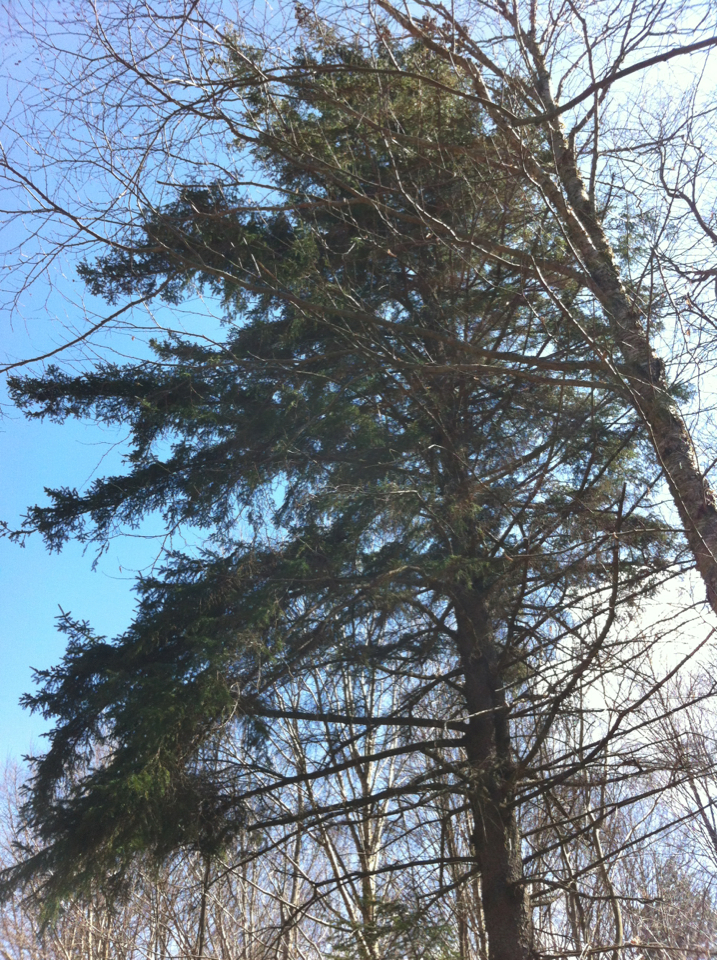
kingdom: Plantae
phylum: Tracheophyta
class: Pinopsida
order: Pinales
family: Pinaceae
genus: Picea
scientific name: Picea rubens
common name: Red spruce
